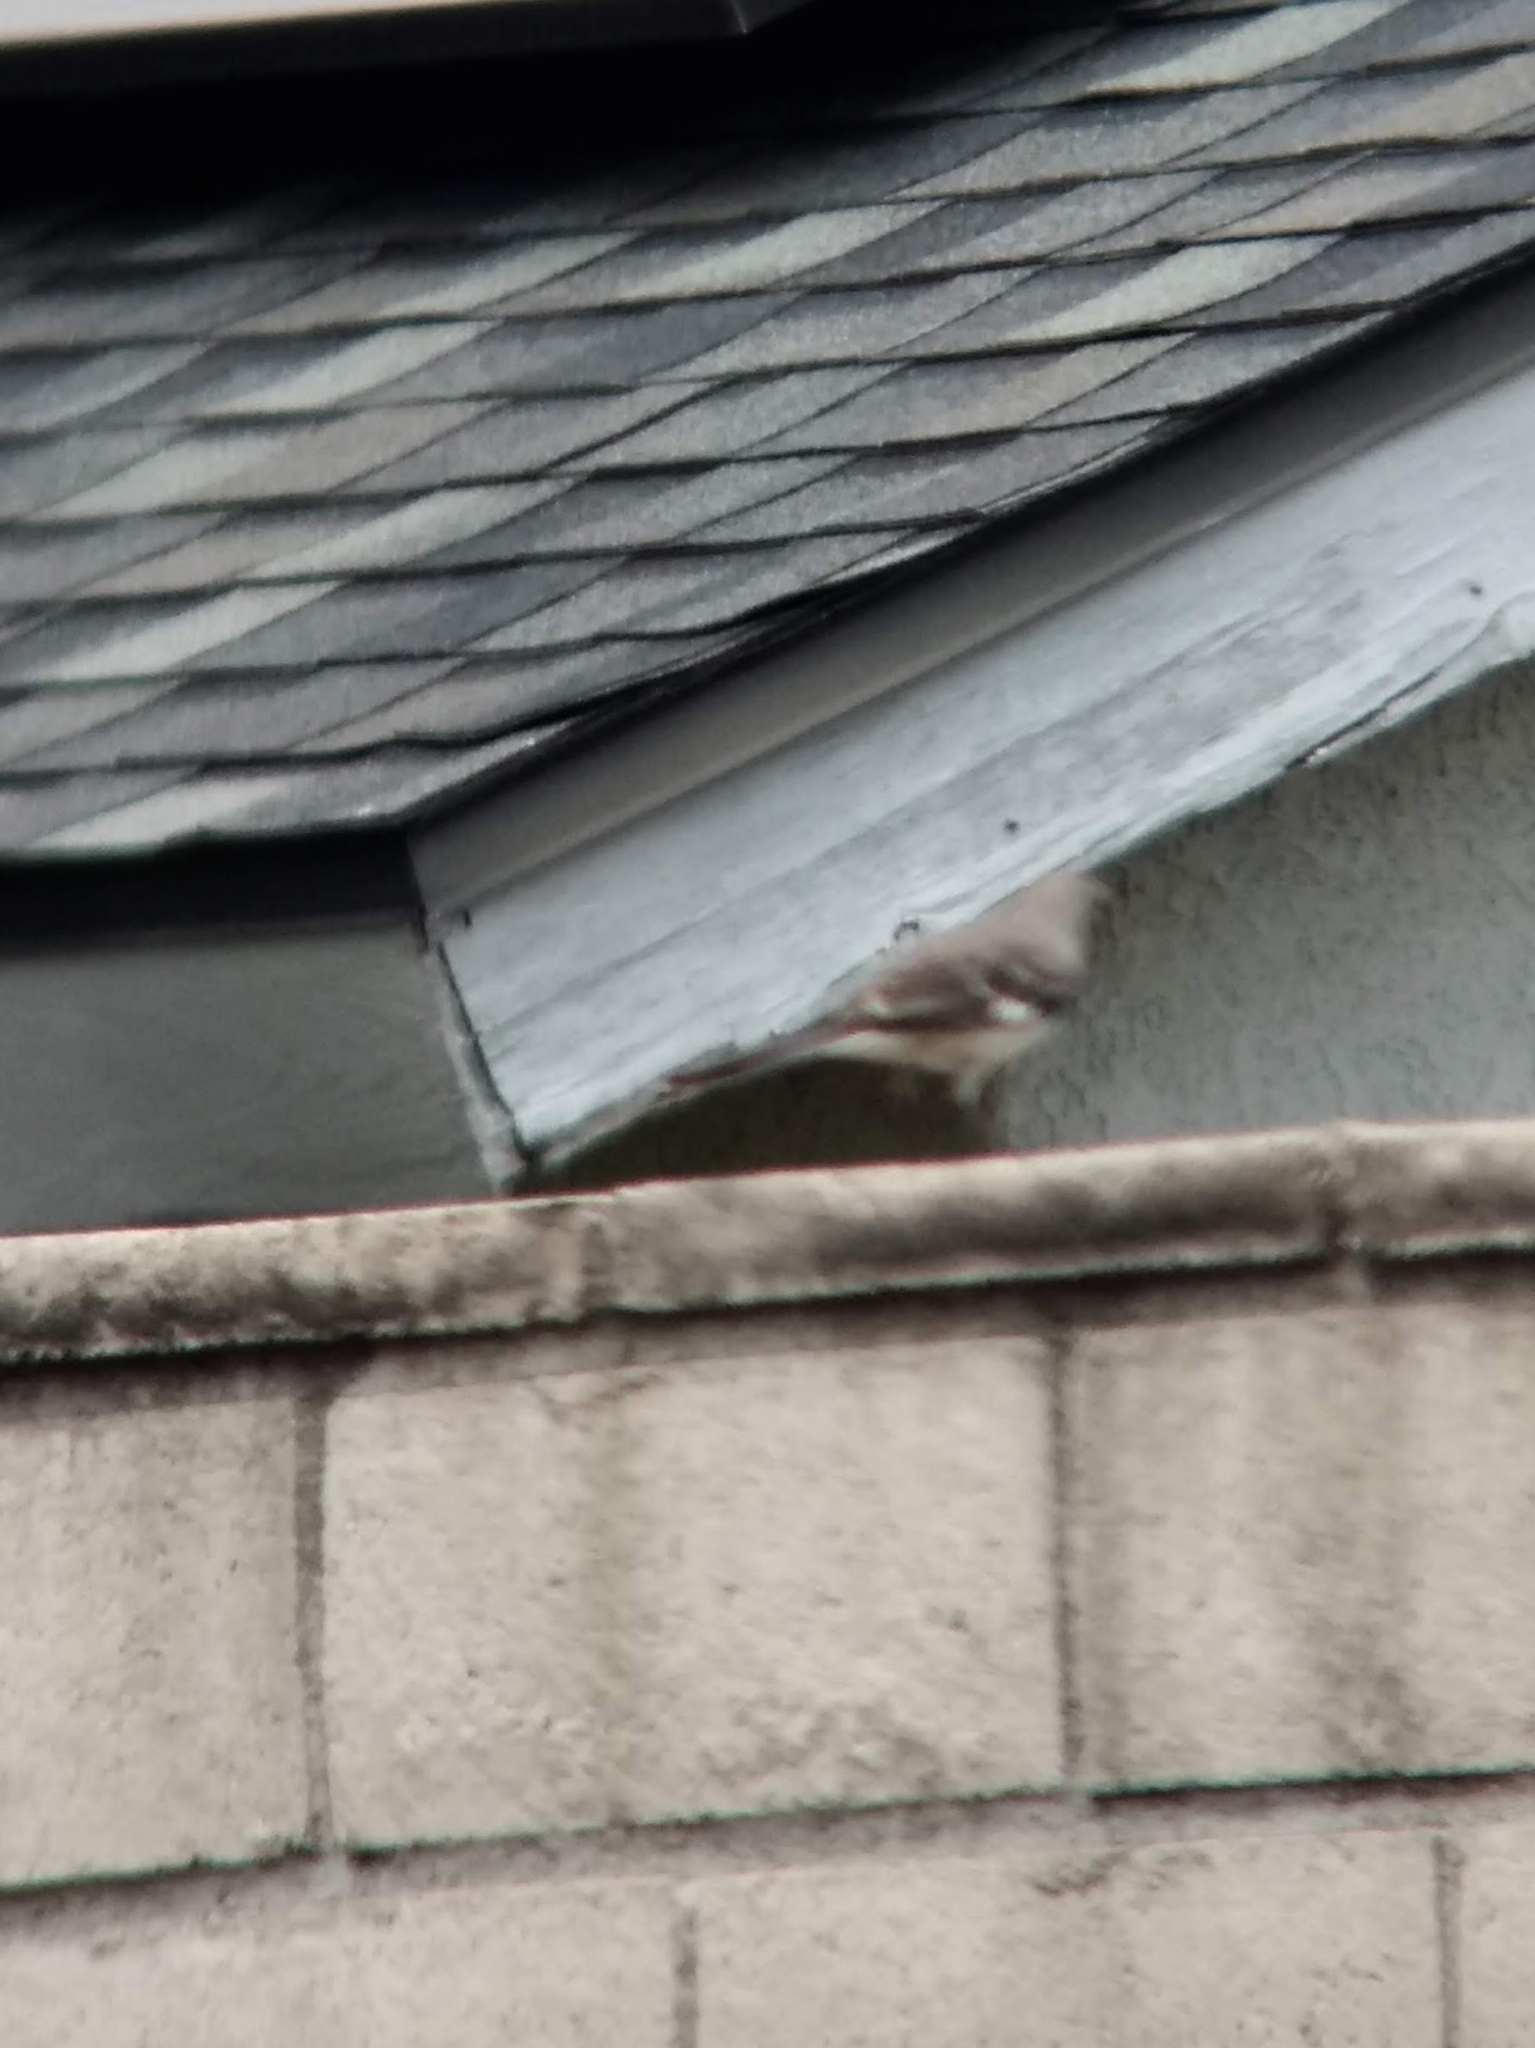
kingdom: Animalia
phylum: Chordata
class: Aves
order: Passeriformes
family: Mimidae
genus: Mimus
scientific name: Mimus polyglottos
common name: Northern mockingbird
